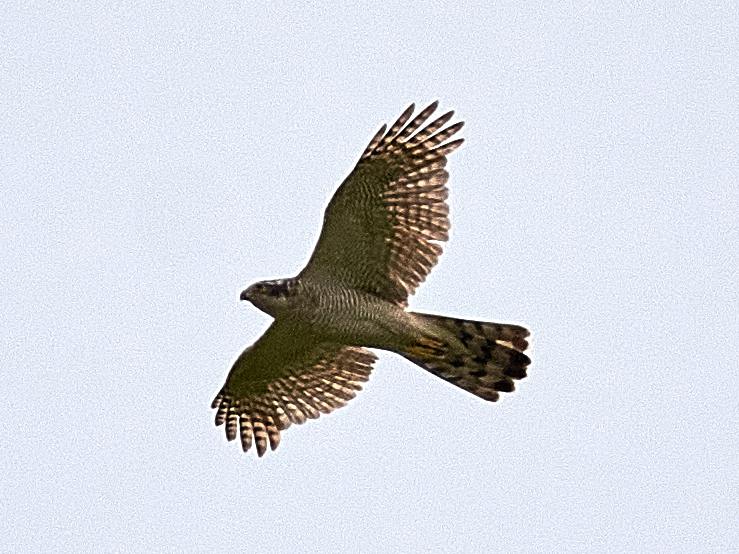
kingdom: Animalia
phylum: Chordata
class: Aves
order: Accipitriformes
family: Accipitridae
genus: Accipiter
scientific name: Accipiter gentilis
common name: Northern goshawk
